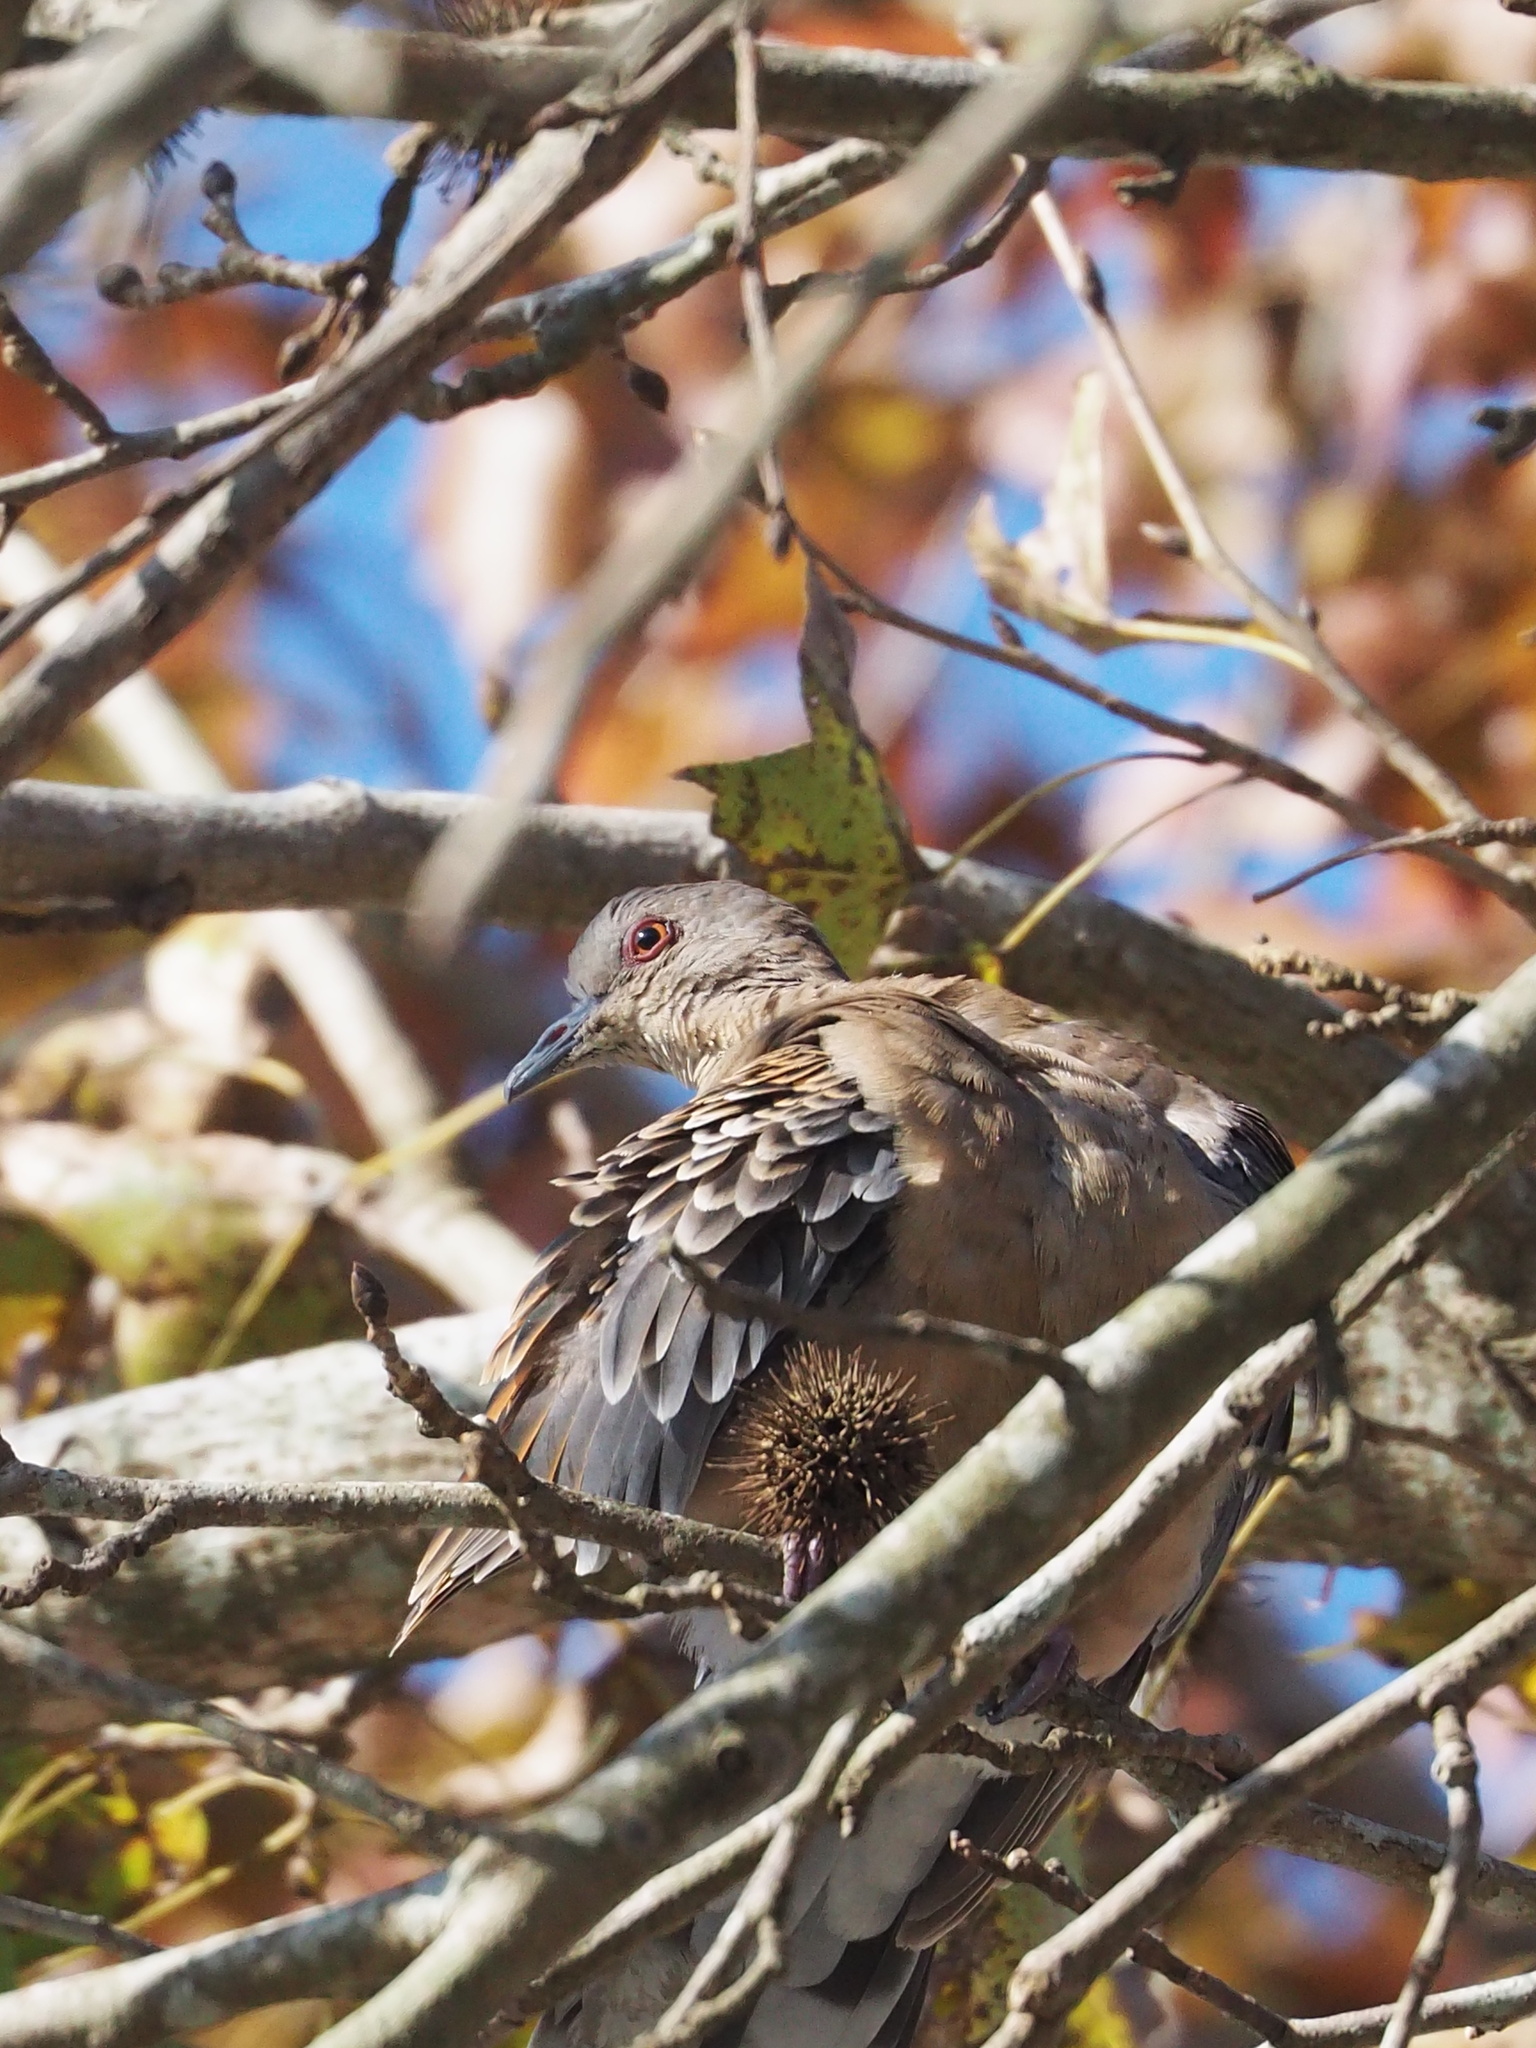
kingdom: Animalia
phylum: Chordata
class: Aves
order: Columbiformes
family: Columbidae
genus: Streptopelia
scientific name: Streptopelia orientalis
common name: Oriental turtle dove
